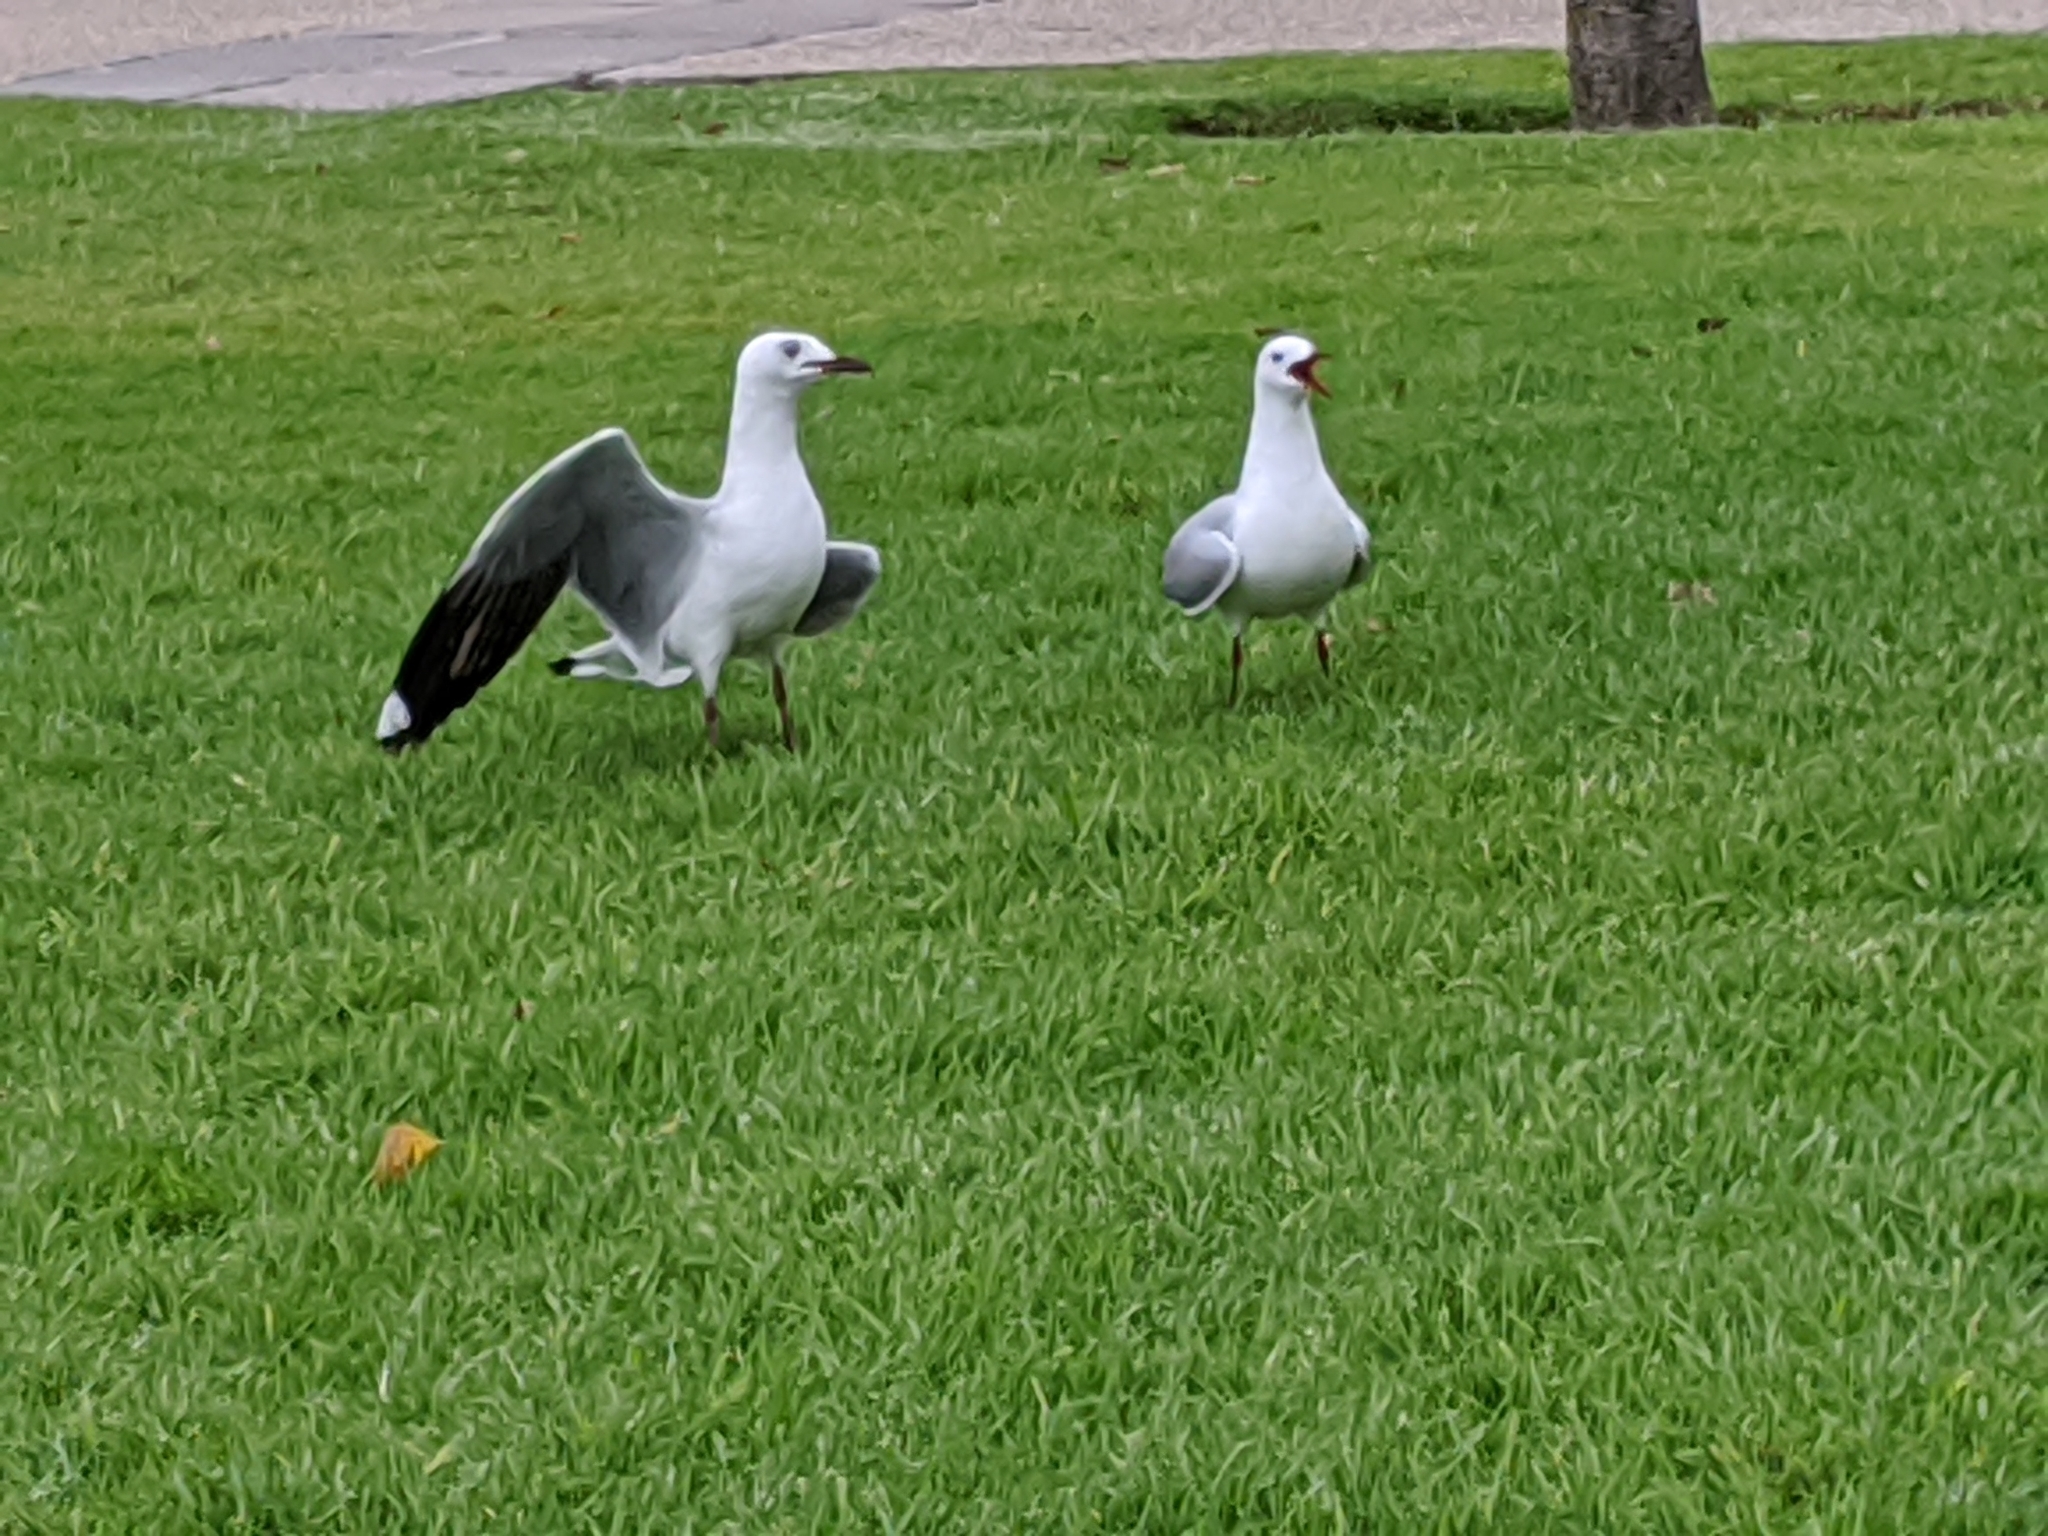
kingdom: Animalia
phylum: Chordata
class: Aves
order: Charadriiformes
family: Laridae
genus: Chroicocephalus
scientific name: Chroicocephalus hartlaubii
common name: Hartlaub's gull
